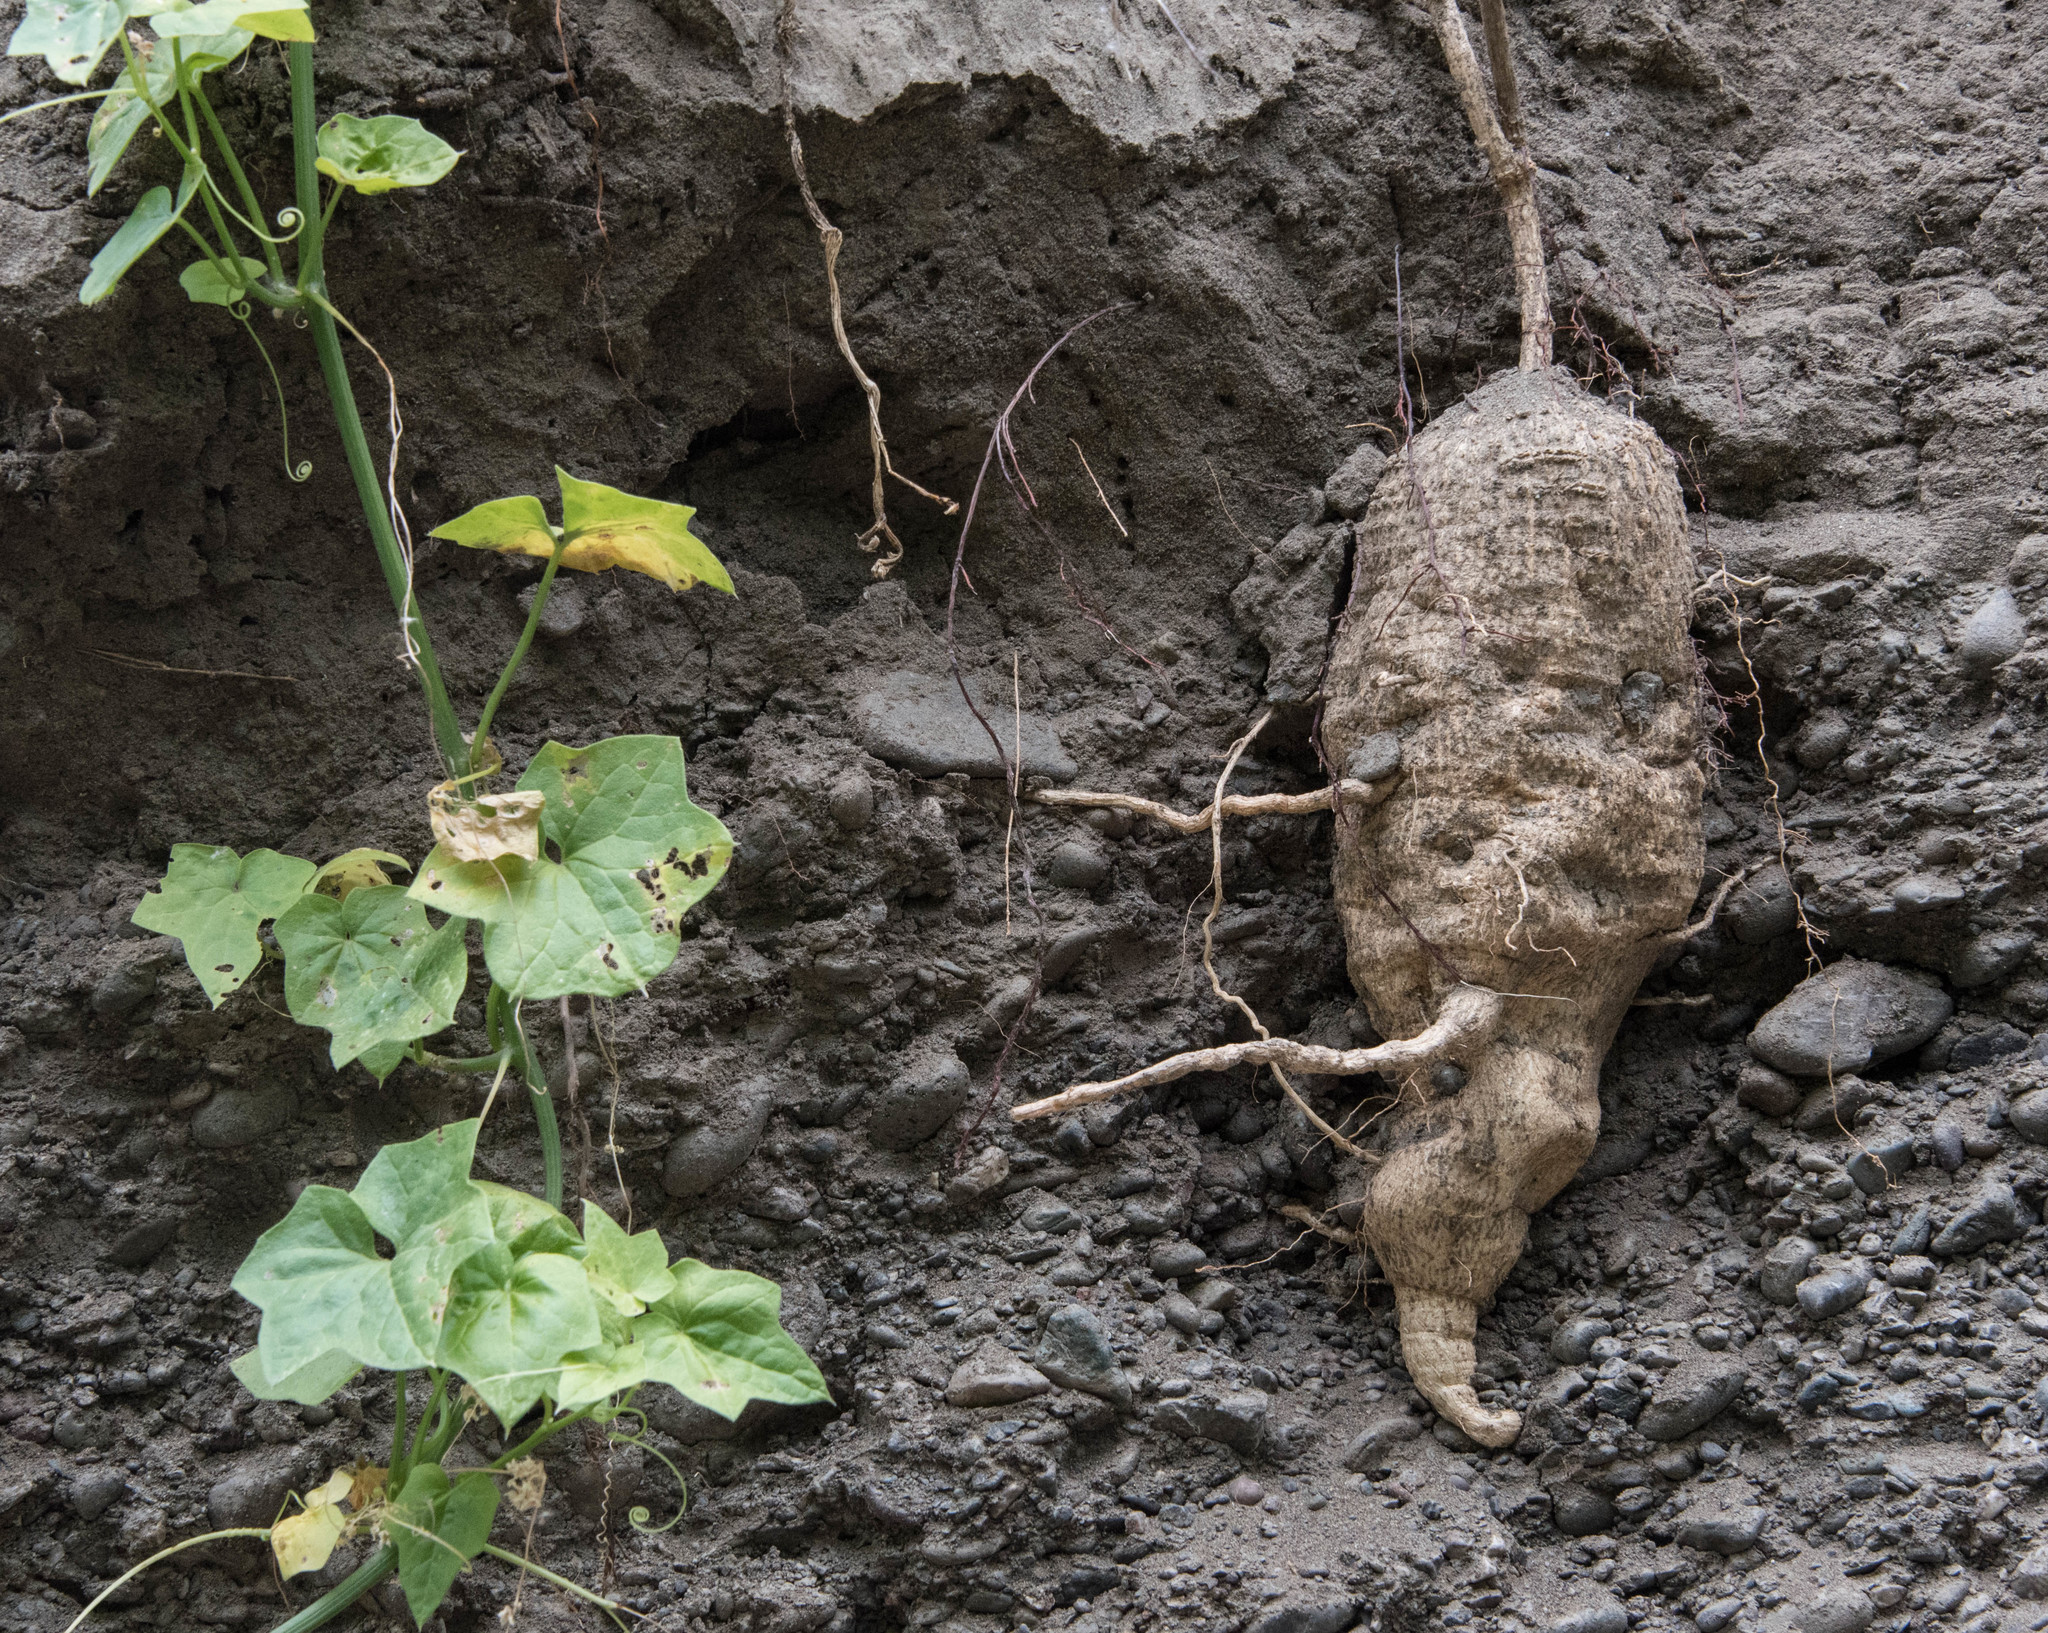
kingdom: Plantae
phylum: Tracheophyta
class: Magnoliopsida
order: Cucurbitales
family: Cucurbitaceae
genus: Marah
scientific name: Marah fabacea
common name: California manroot
